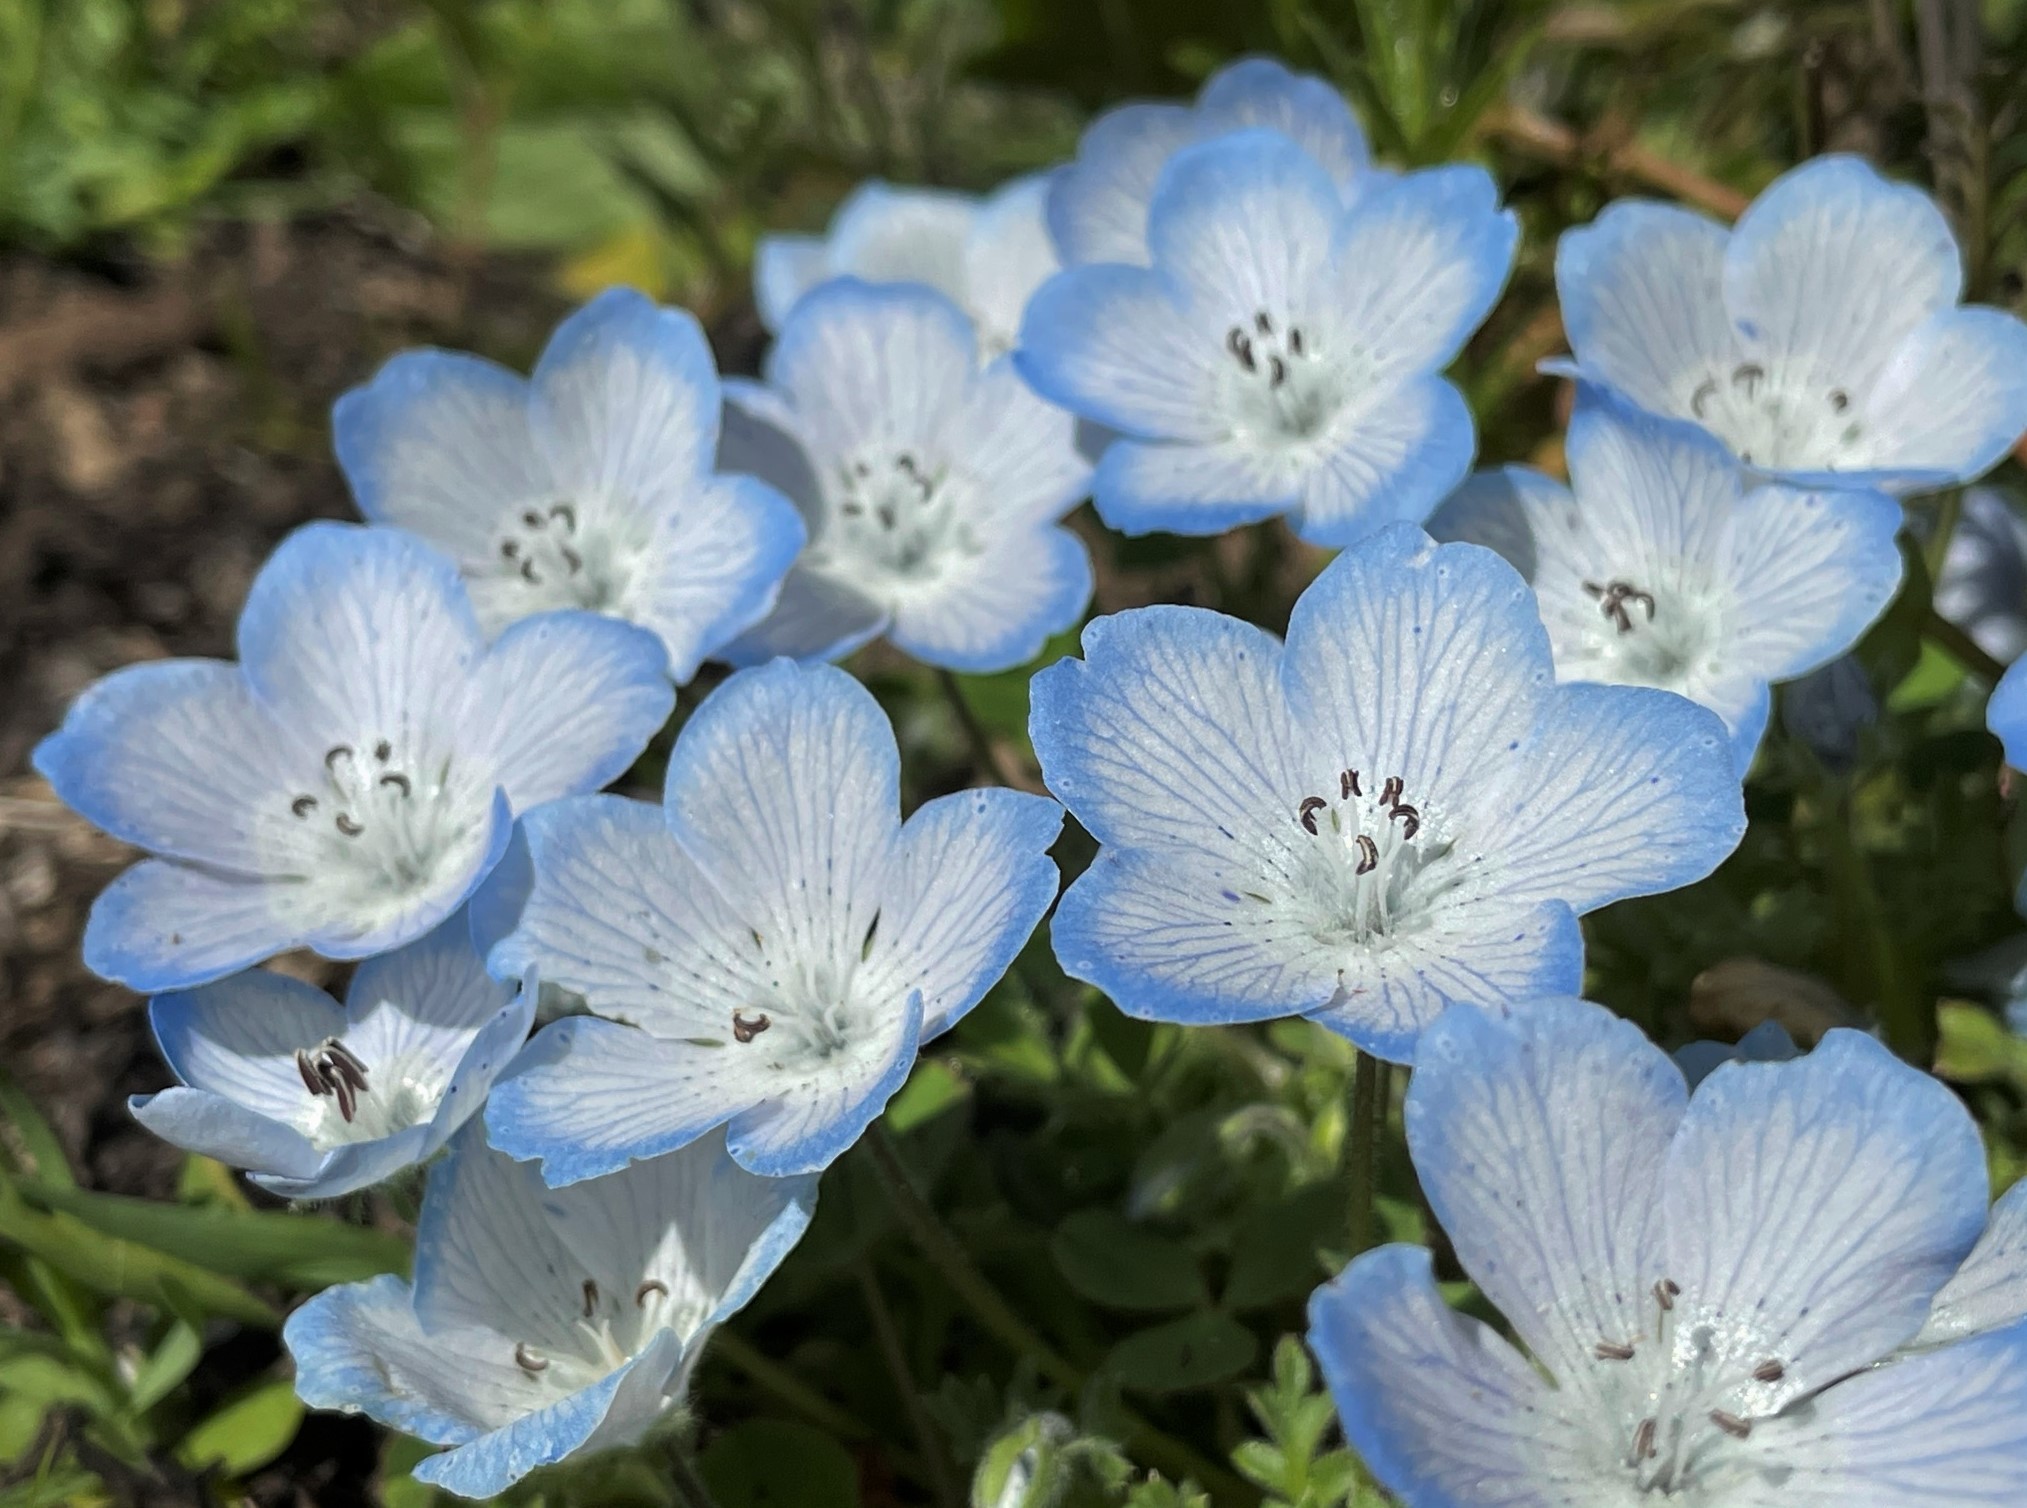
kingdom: Plantae
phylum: Tracheophyta
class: Magnoliopsida
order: Boraginales
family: Hydrophyllaceae
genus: Nemophila
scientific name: Nemophila menziesii
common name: Baby's-blue-eyes
